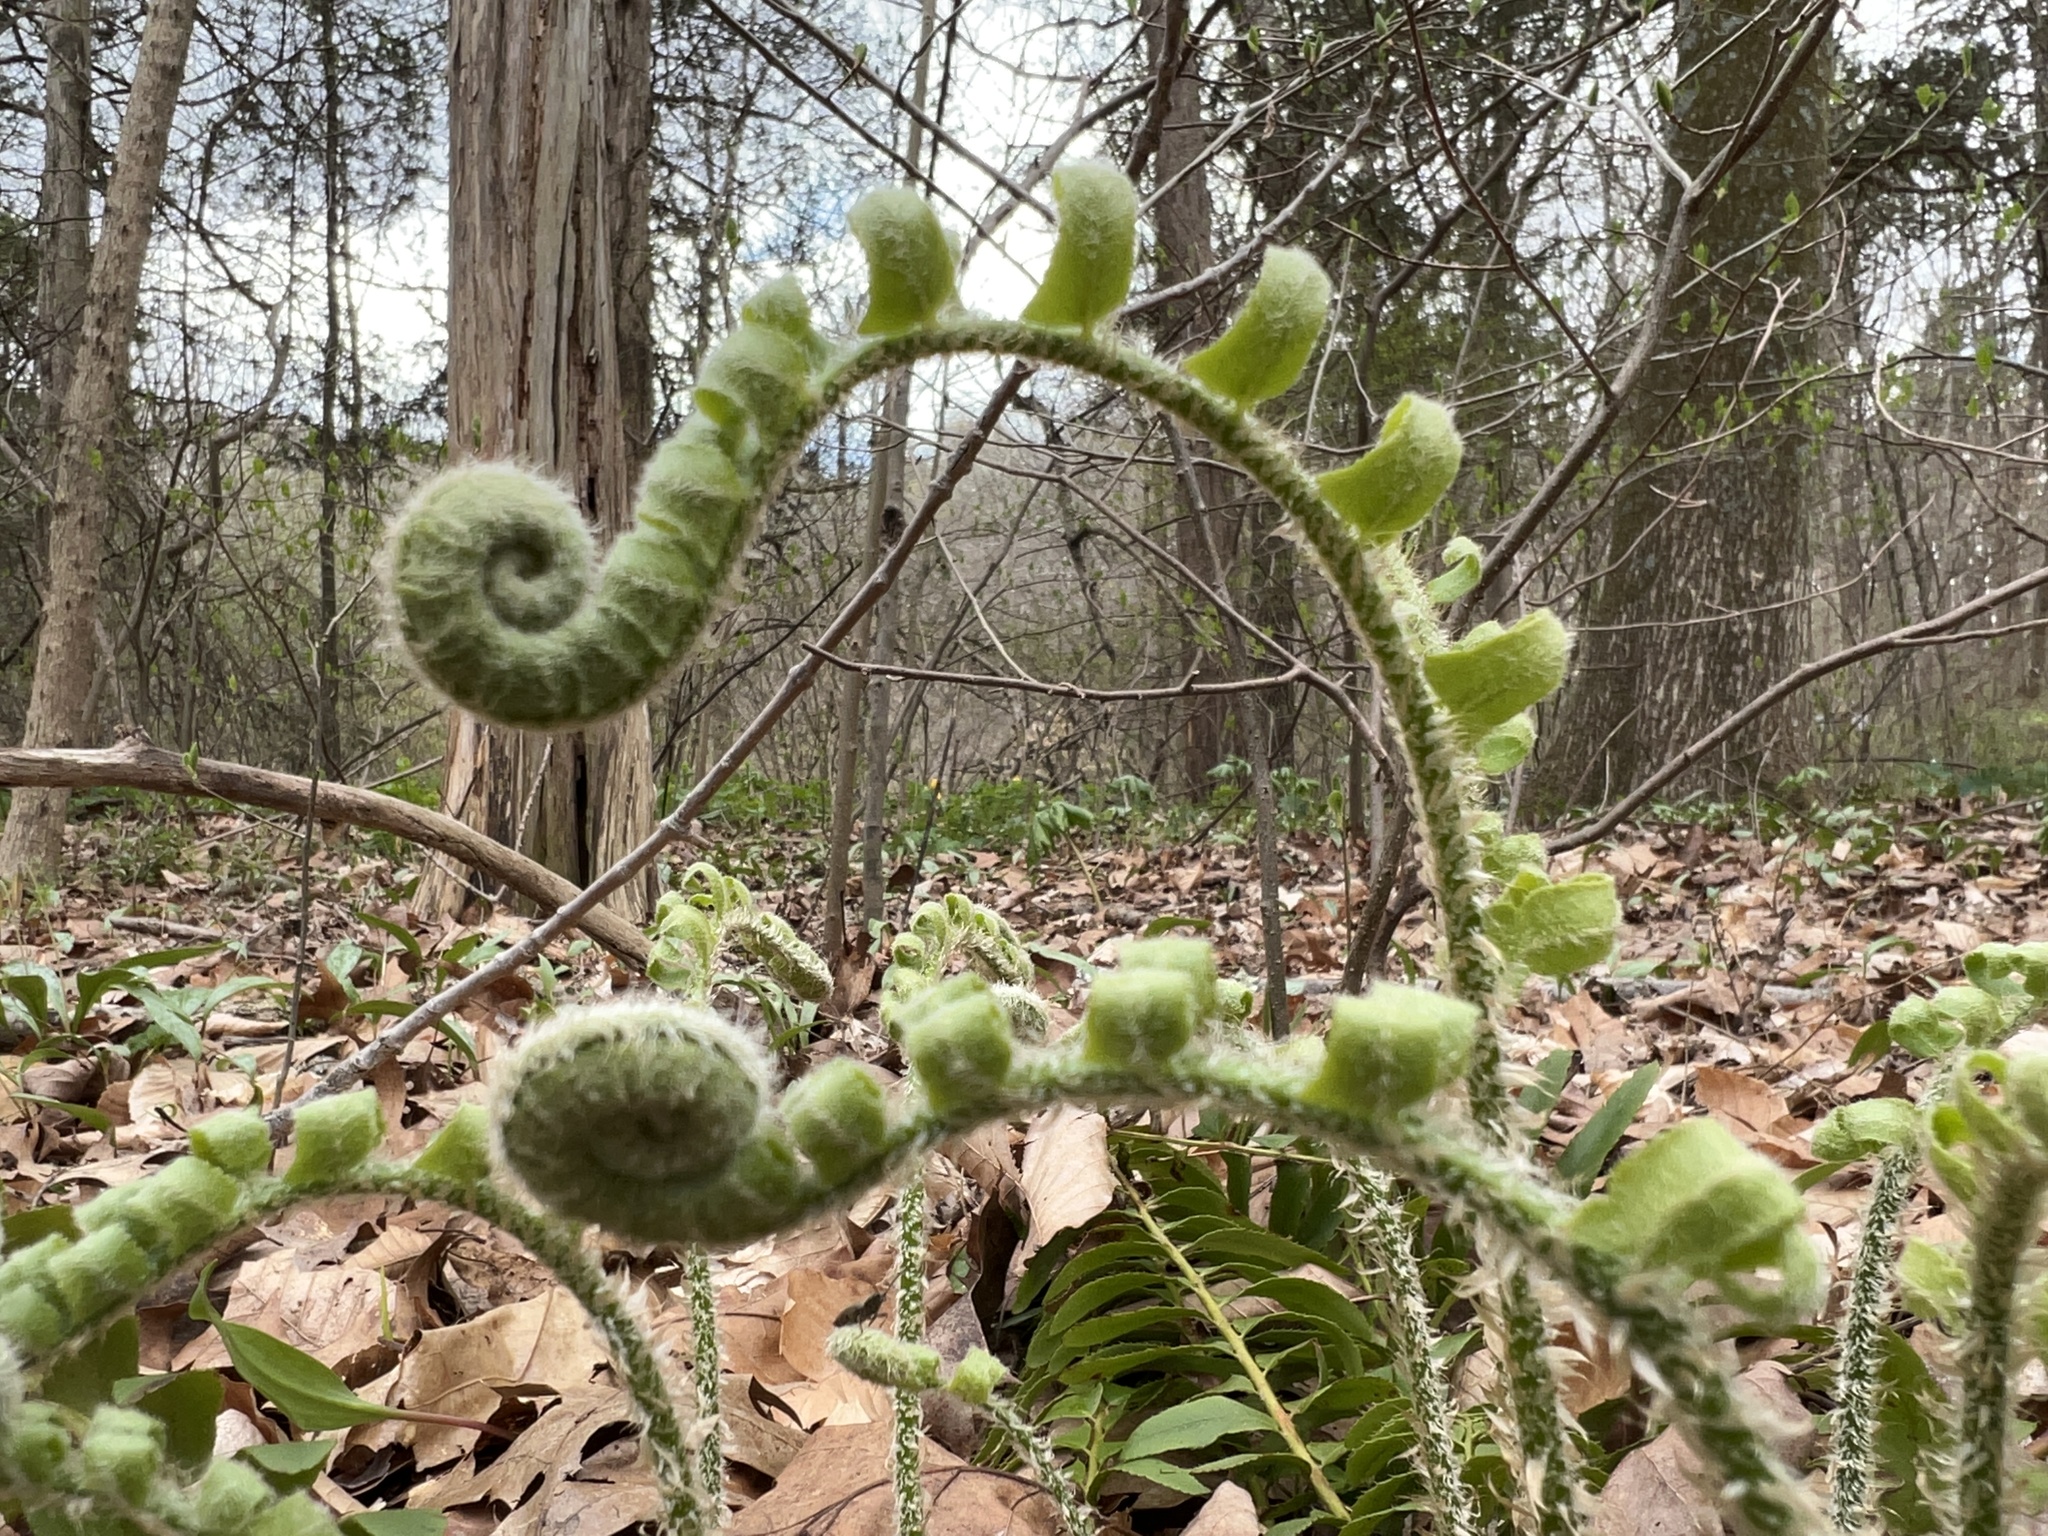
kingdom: Plantae
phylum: Tracheophyta
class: Polypodiopsida
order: Polypodiales
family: Dryopteridaceae
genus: Polystichum
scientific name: Polystichum acrostichoides
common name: Christmas fern
